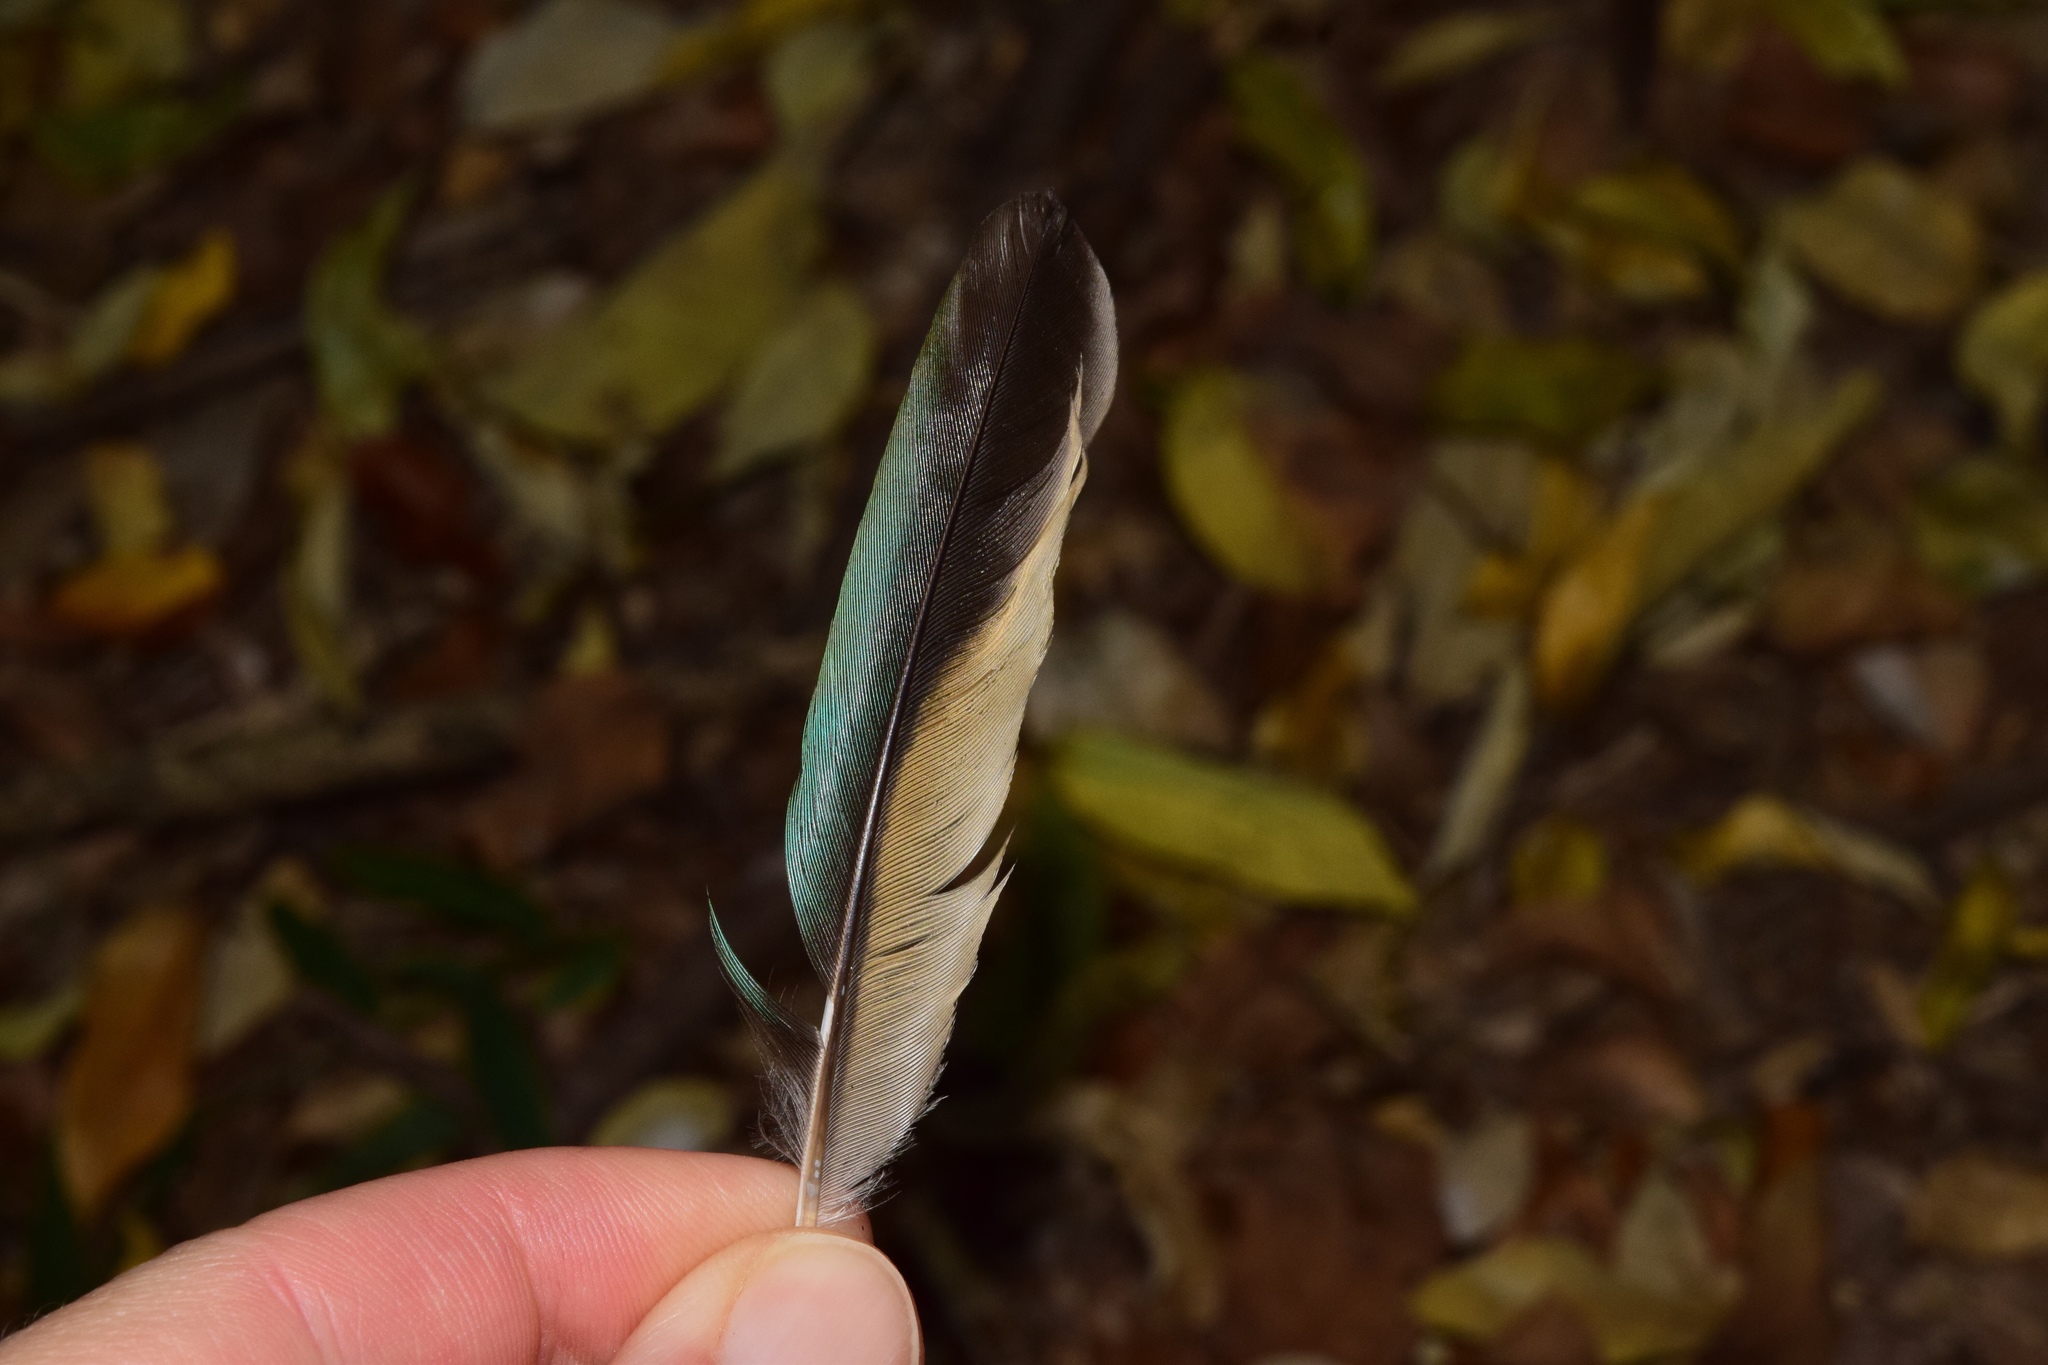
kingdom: Animalia
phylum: Chordata
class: Aves
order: Coraciiformes
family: Alcedinidae
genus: Halcyon
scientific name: Halcyon albiventris
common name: Brown-hooded kingfisher
